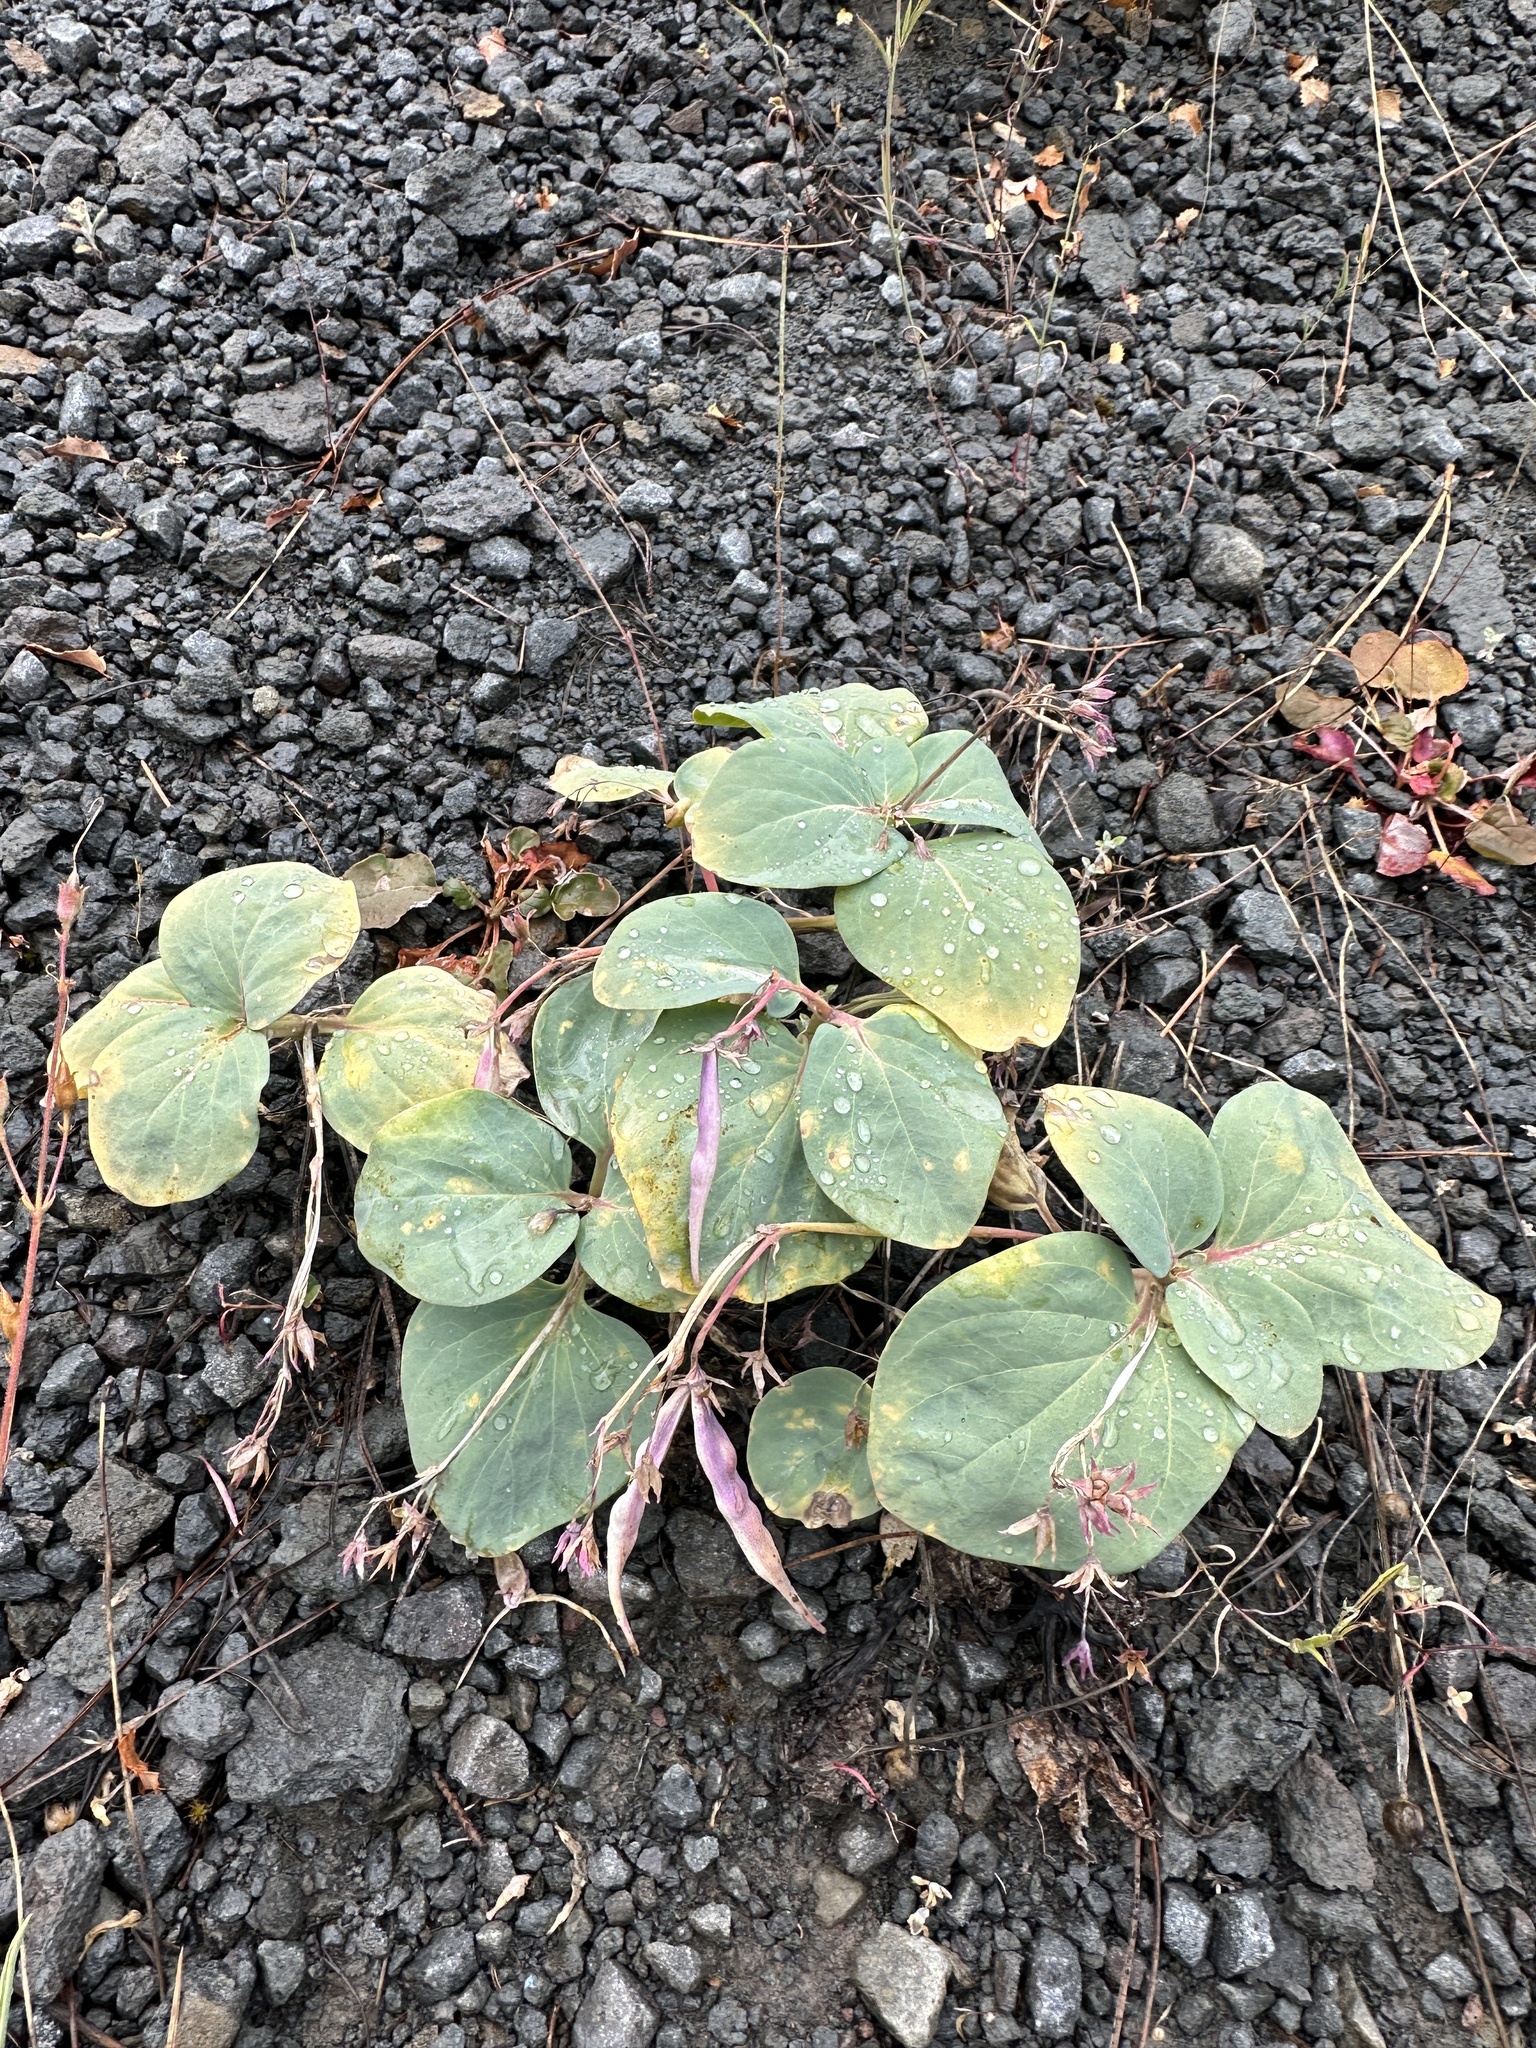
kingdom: Plantae
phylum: Tracheophyta
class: Magnoliopsida
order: Gentianales
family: Apocynaceae
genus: Cycladenia
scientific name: Cycladenia humilis
